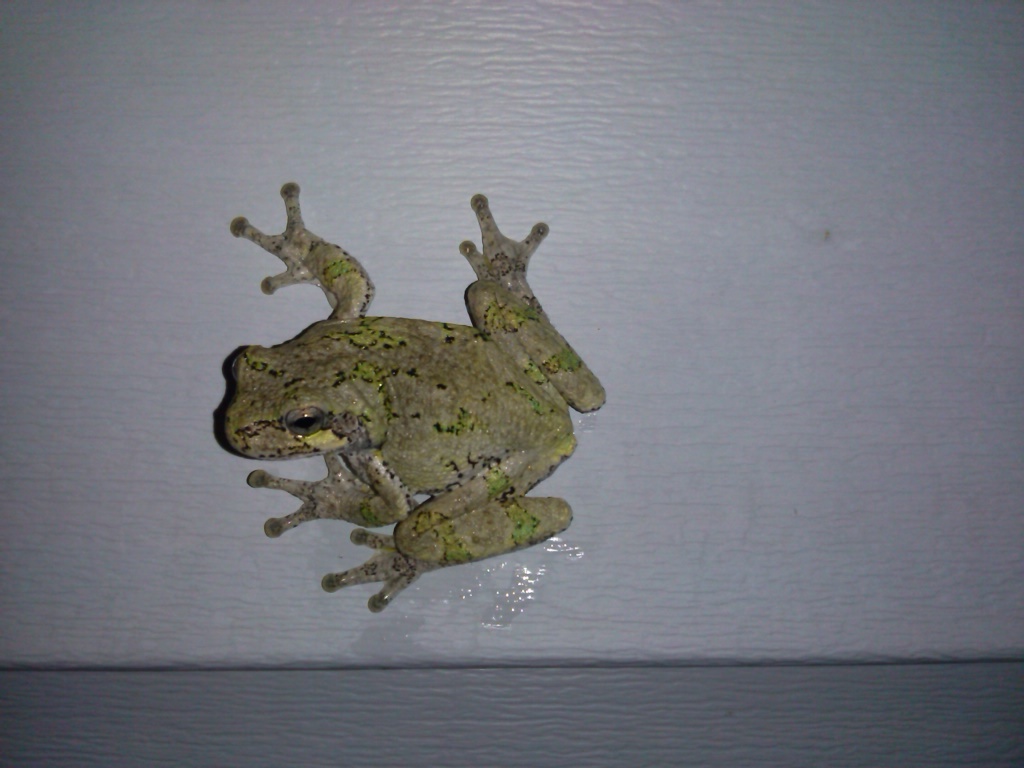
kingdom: Animalia
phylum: Chordata
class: Amphibia
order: Anura
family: Hylidae
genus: Dryophytes
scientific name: Dryophytes versicolor
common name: Gray treefrog
